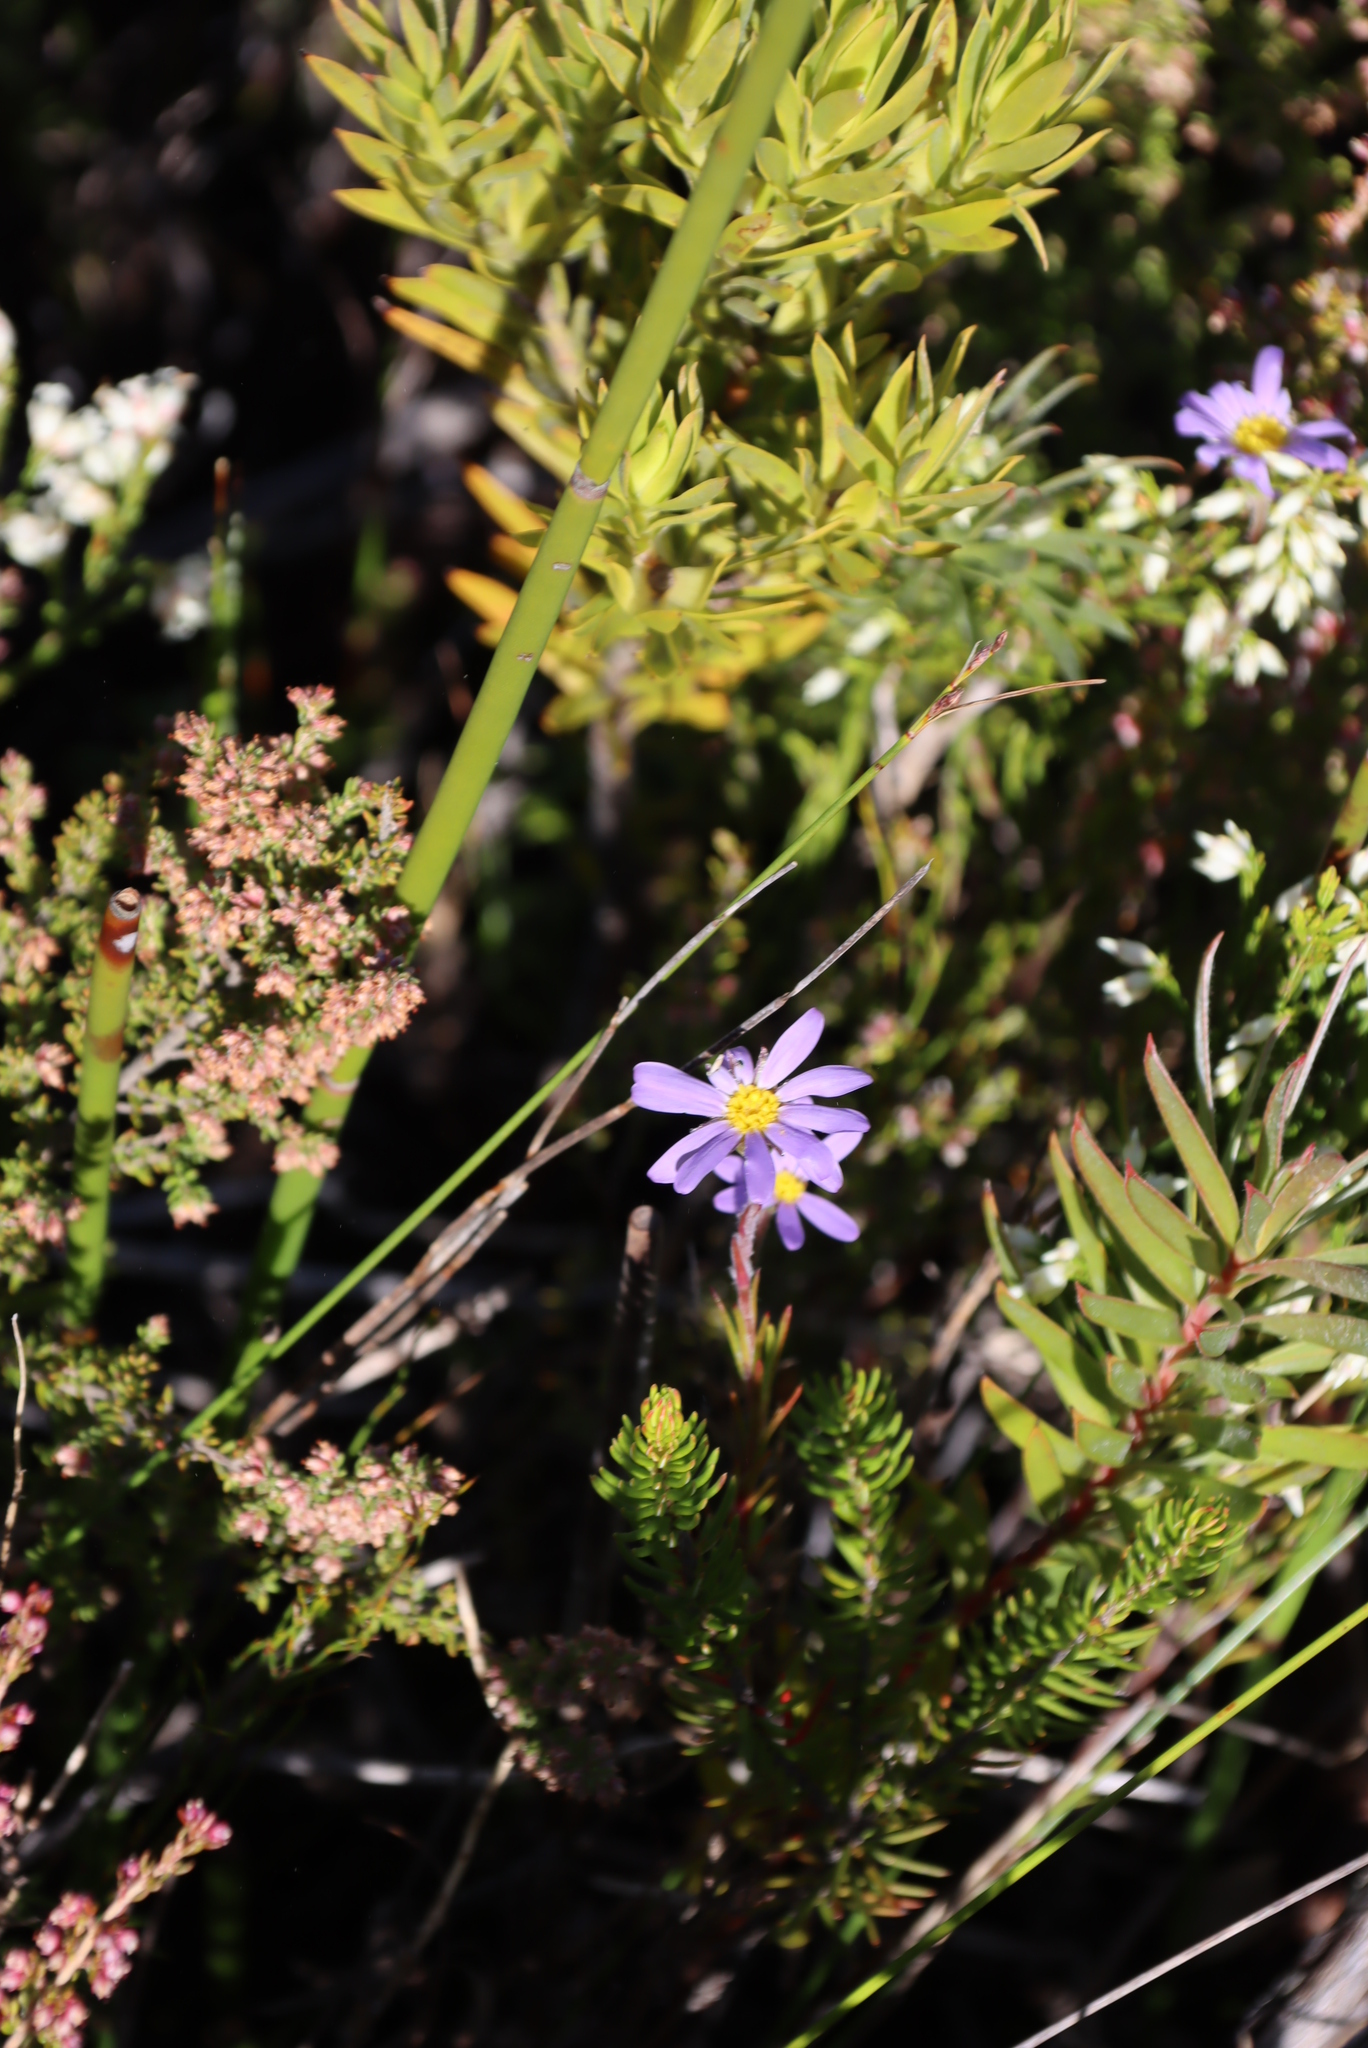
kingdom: Plantae
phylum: Tracheophyta
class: Magnoliopsida
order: Asterales
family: Asteraceae
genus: Zyrphelis
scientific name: Zyrphelis taxifolia
